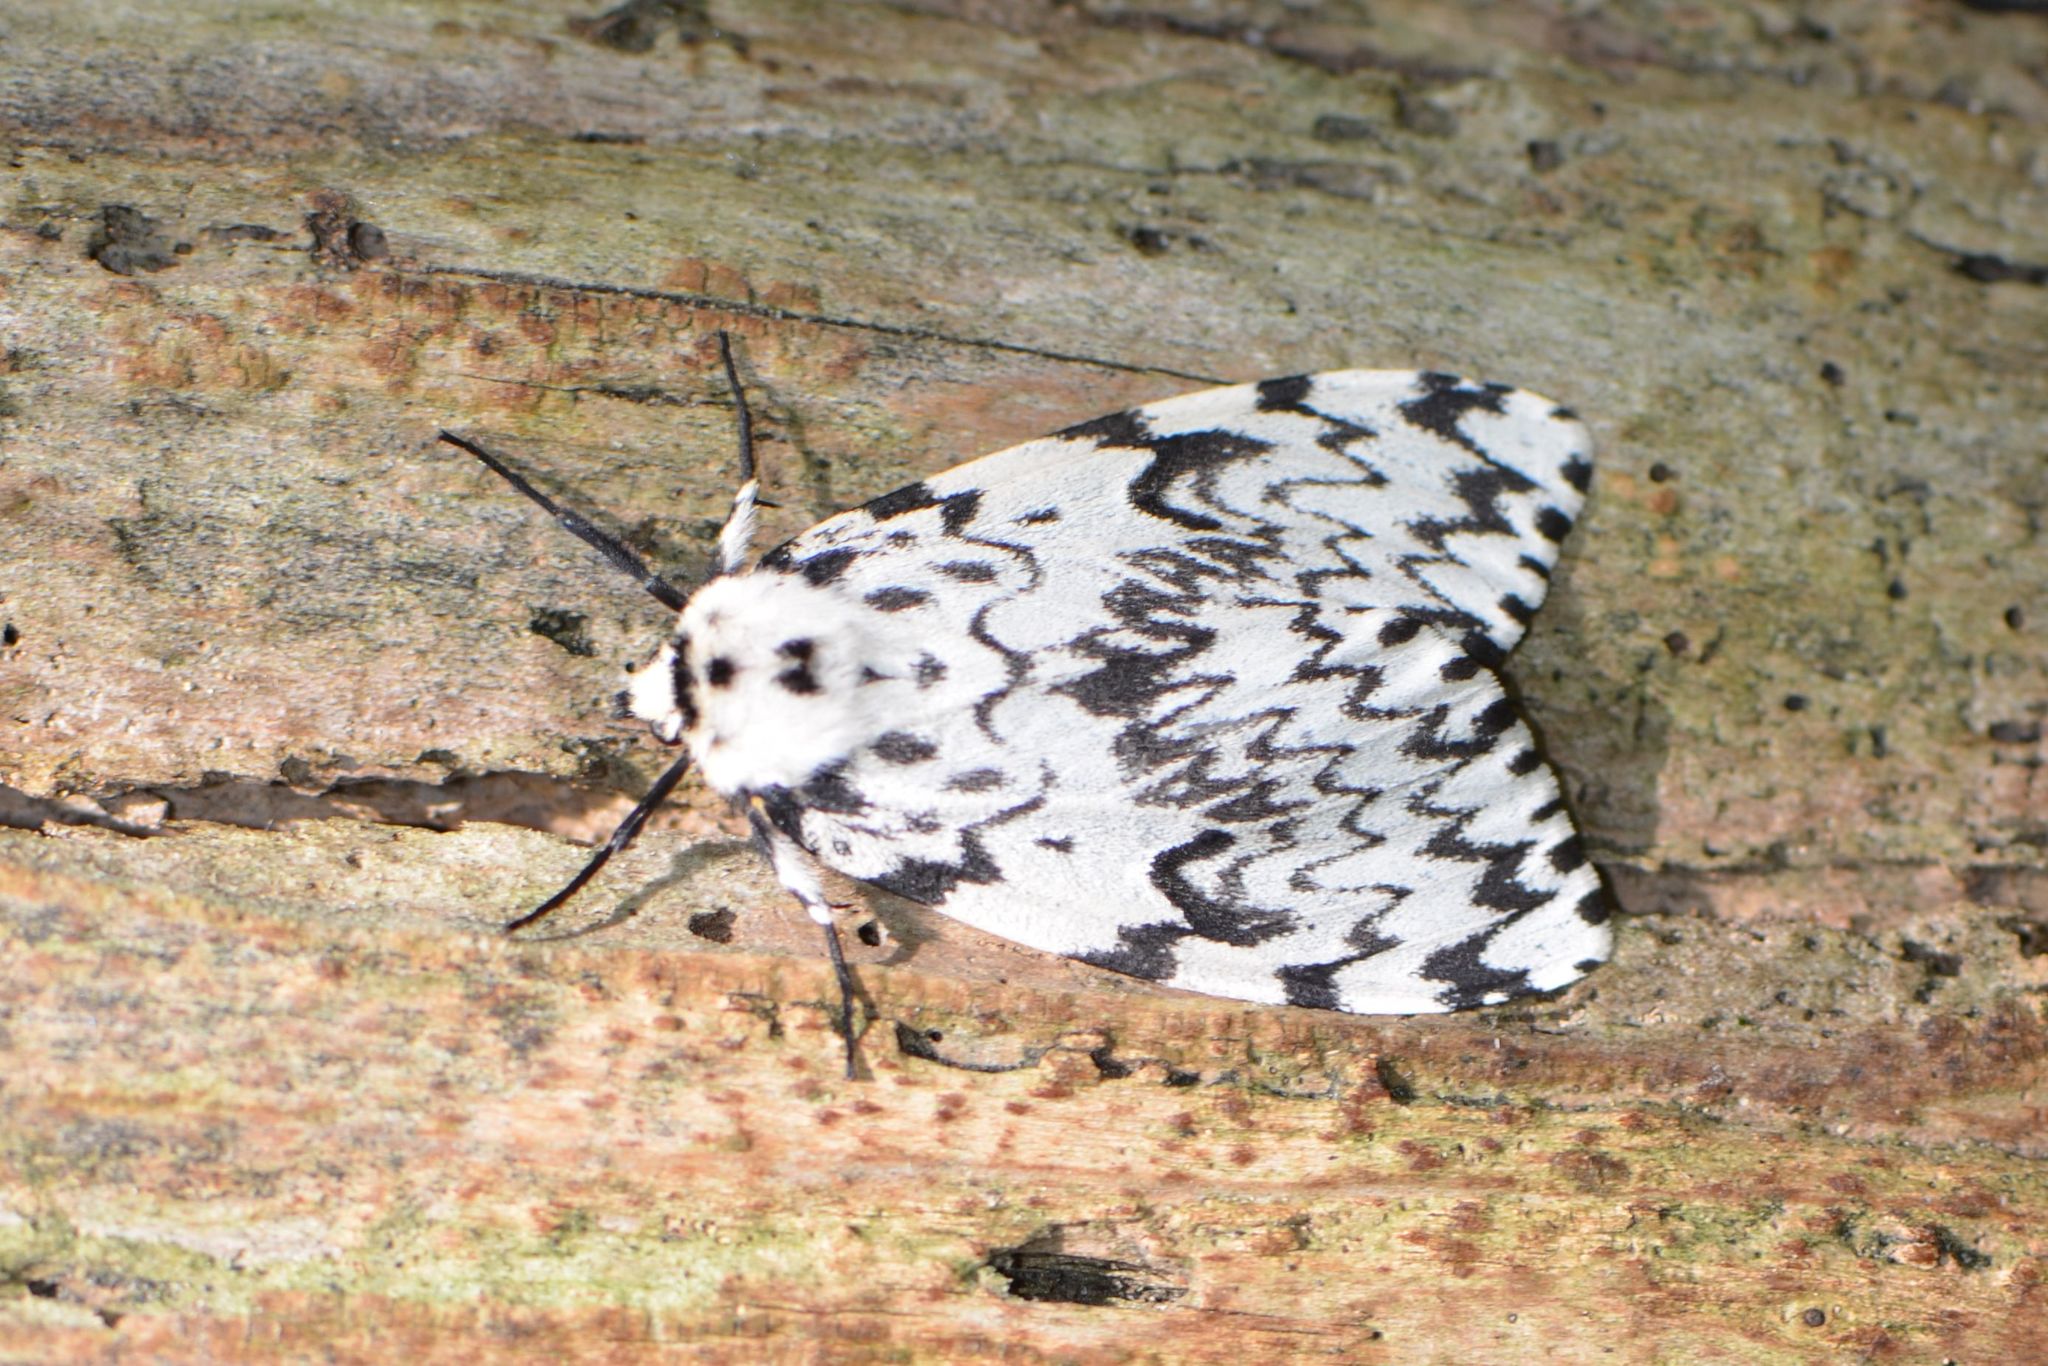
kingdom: Animalia
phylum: Arthropoda
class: Insecta
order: Lepidoptera
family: Erebidae
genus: Lymantria
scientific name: Lymantria monacha
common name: Black arches
